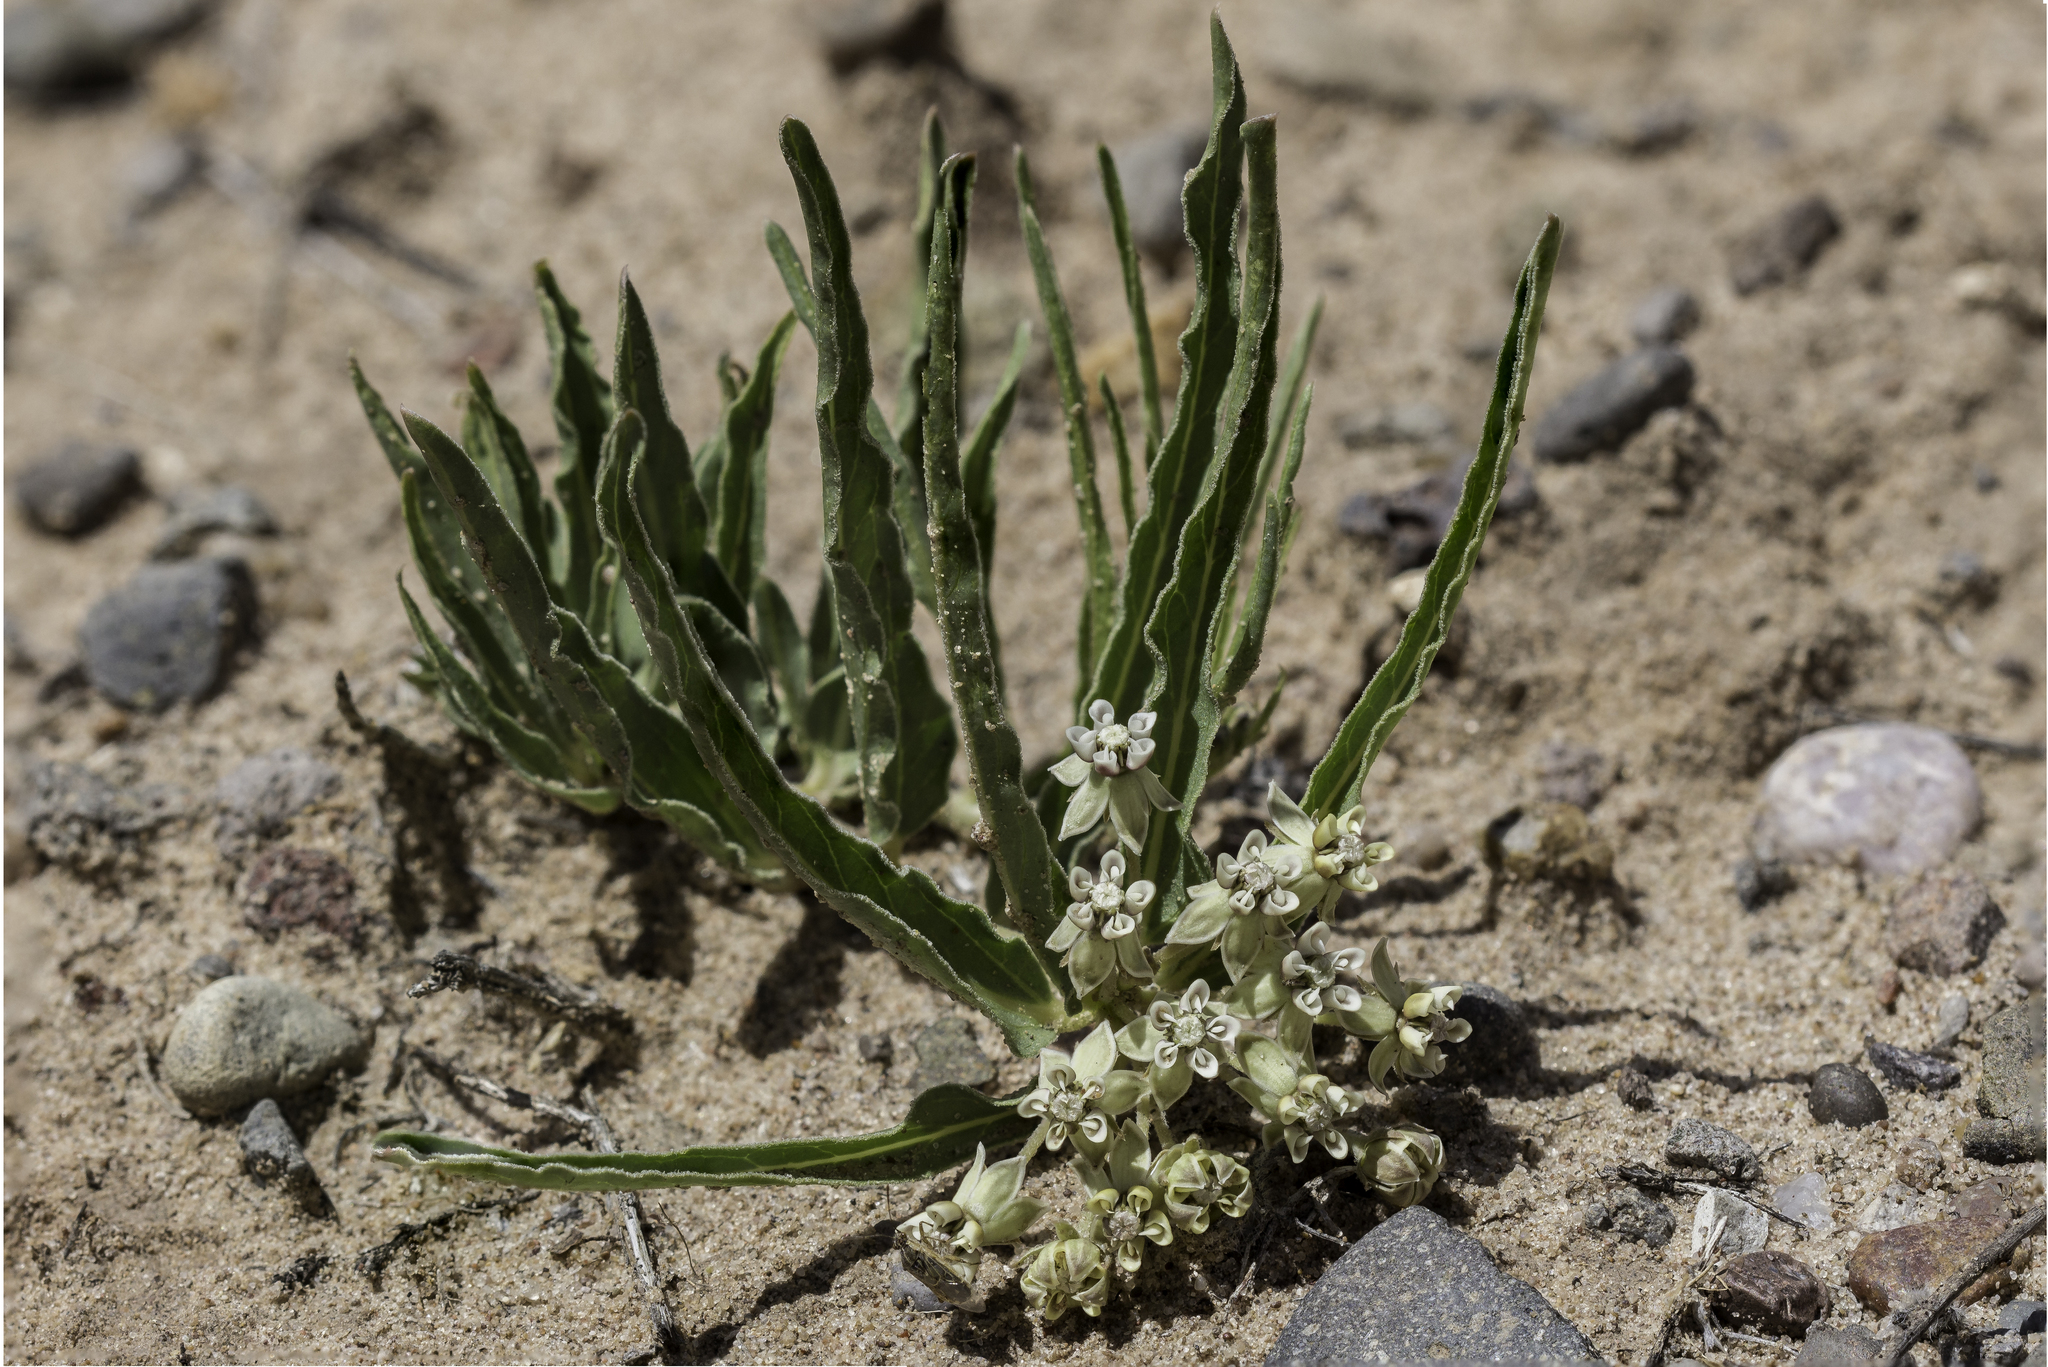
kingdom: Plantae
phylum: Tracheophyta
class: Magnoliopsida
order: Gentianales
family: Apocynaceae
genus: Asclepias
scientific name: Asclepias involucrata
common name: Dwarf milkweed
